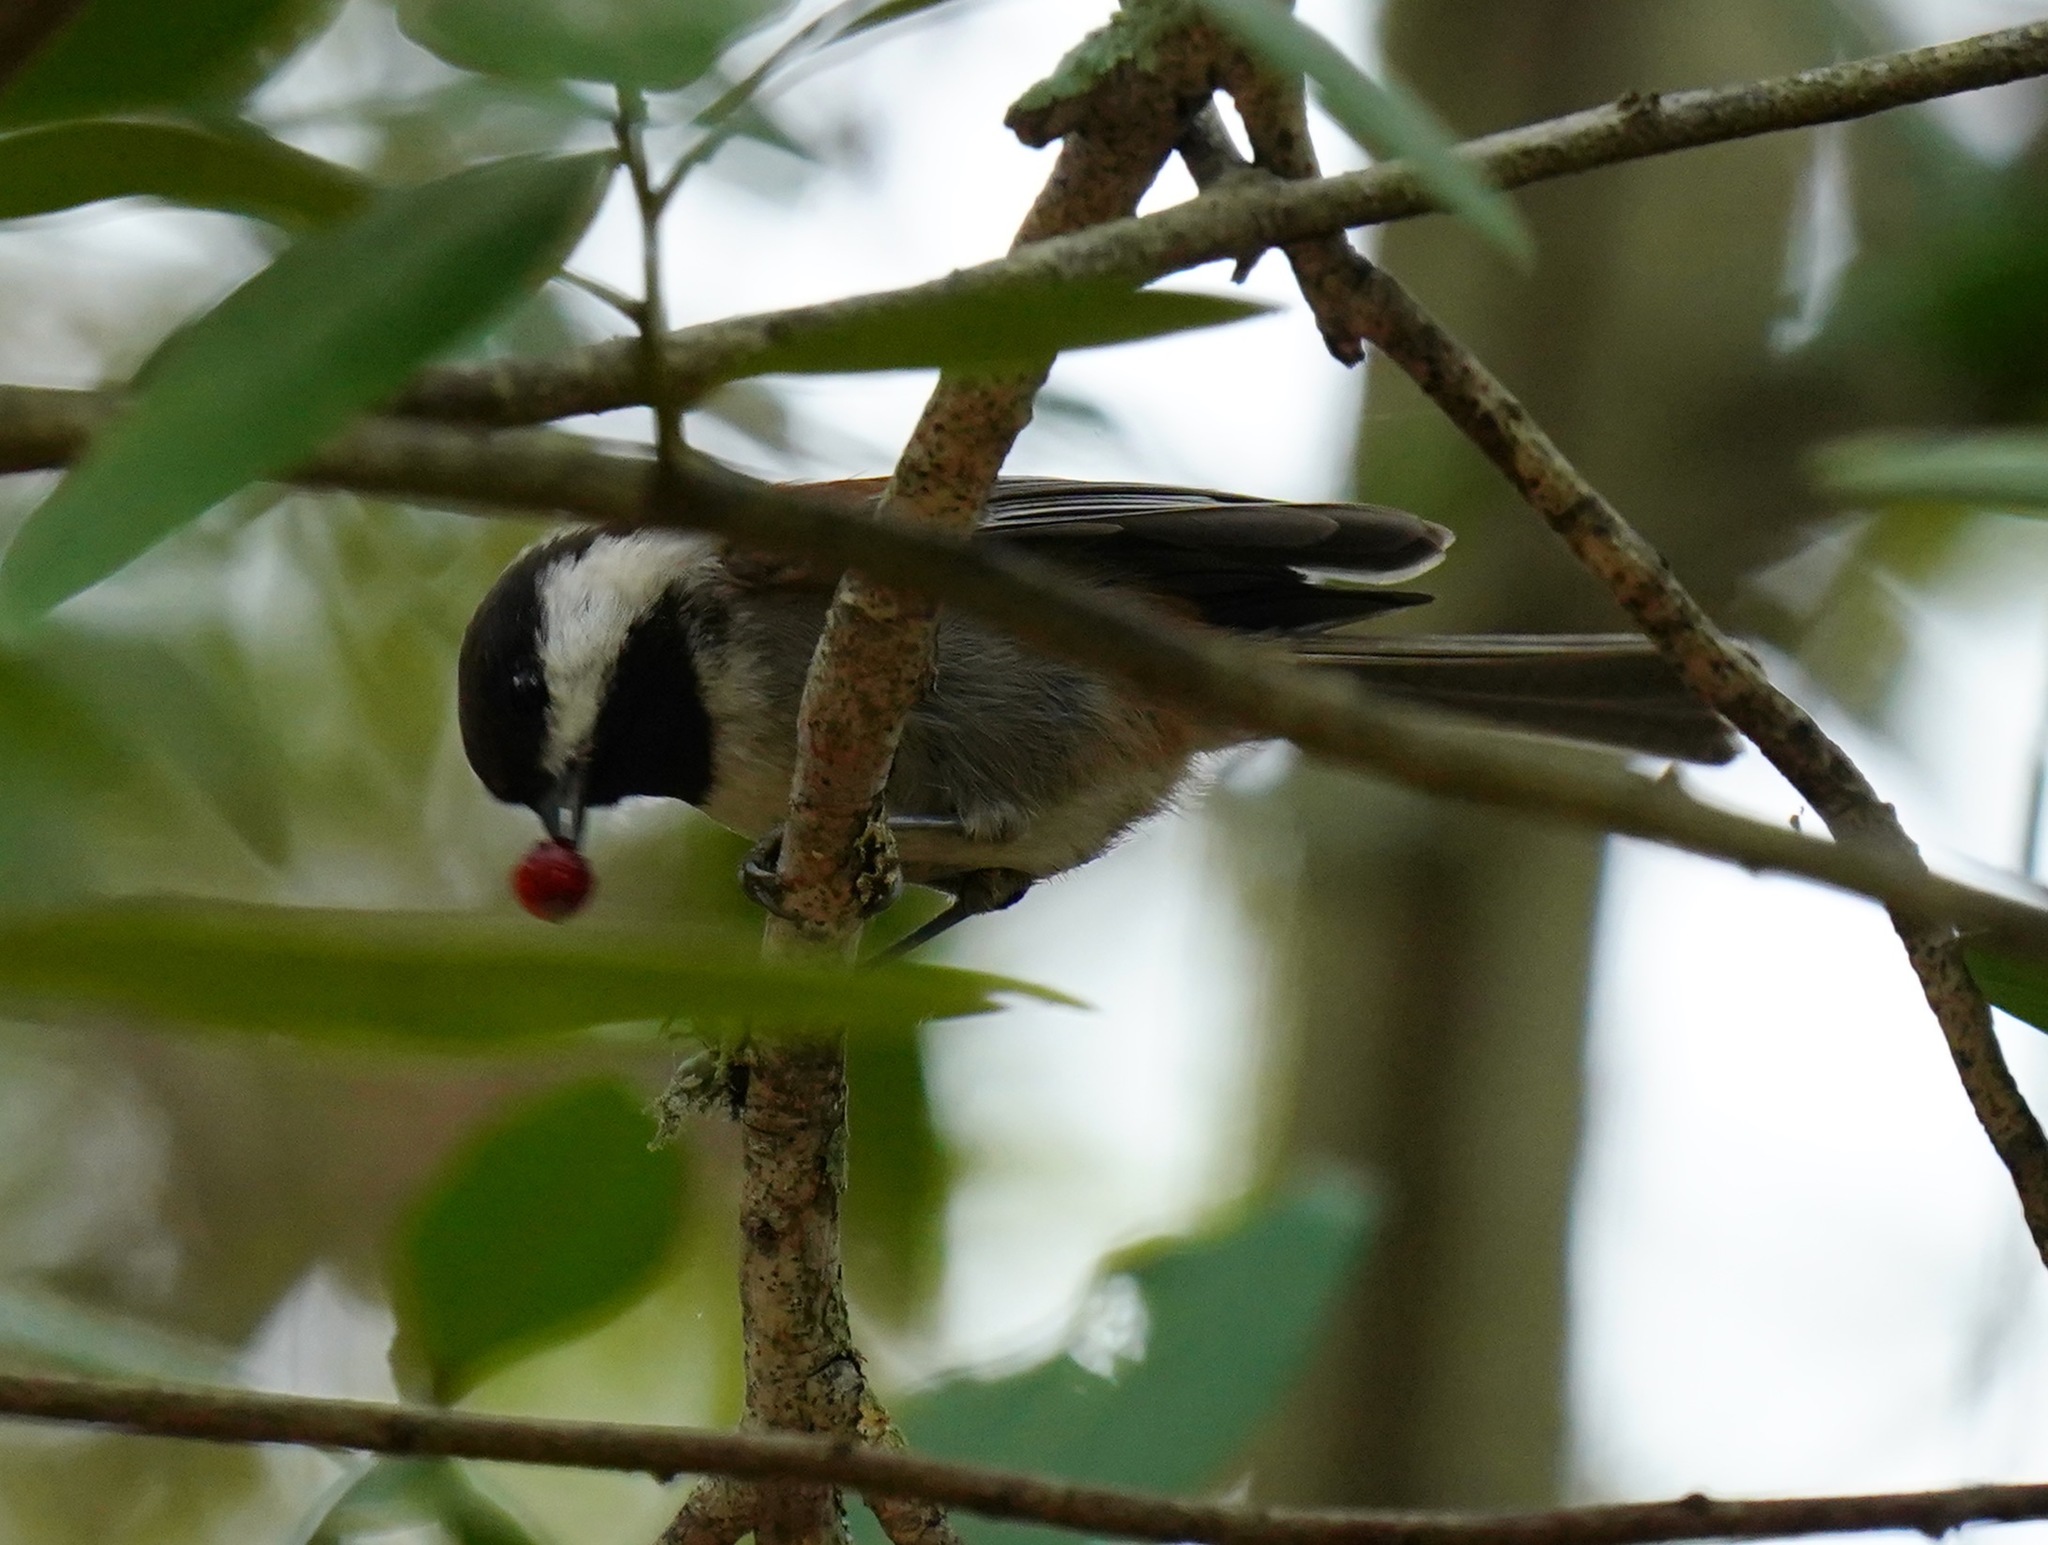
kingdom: Animalia
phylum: Chordata
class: Aves
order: Passeriformes
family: Paridae
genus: Poecile
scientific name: Poecile rufescens
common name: Chestnut-backed chickadee
